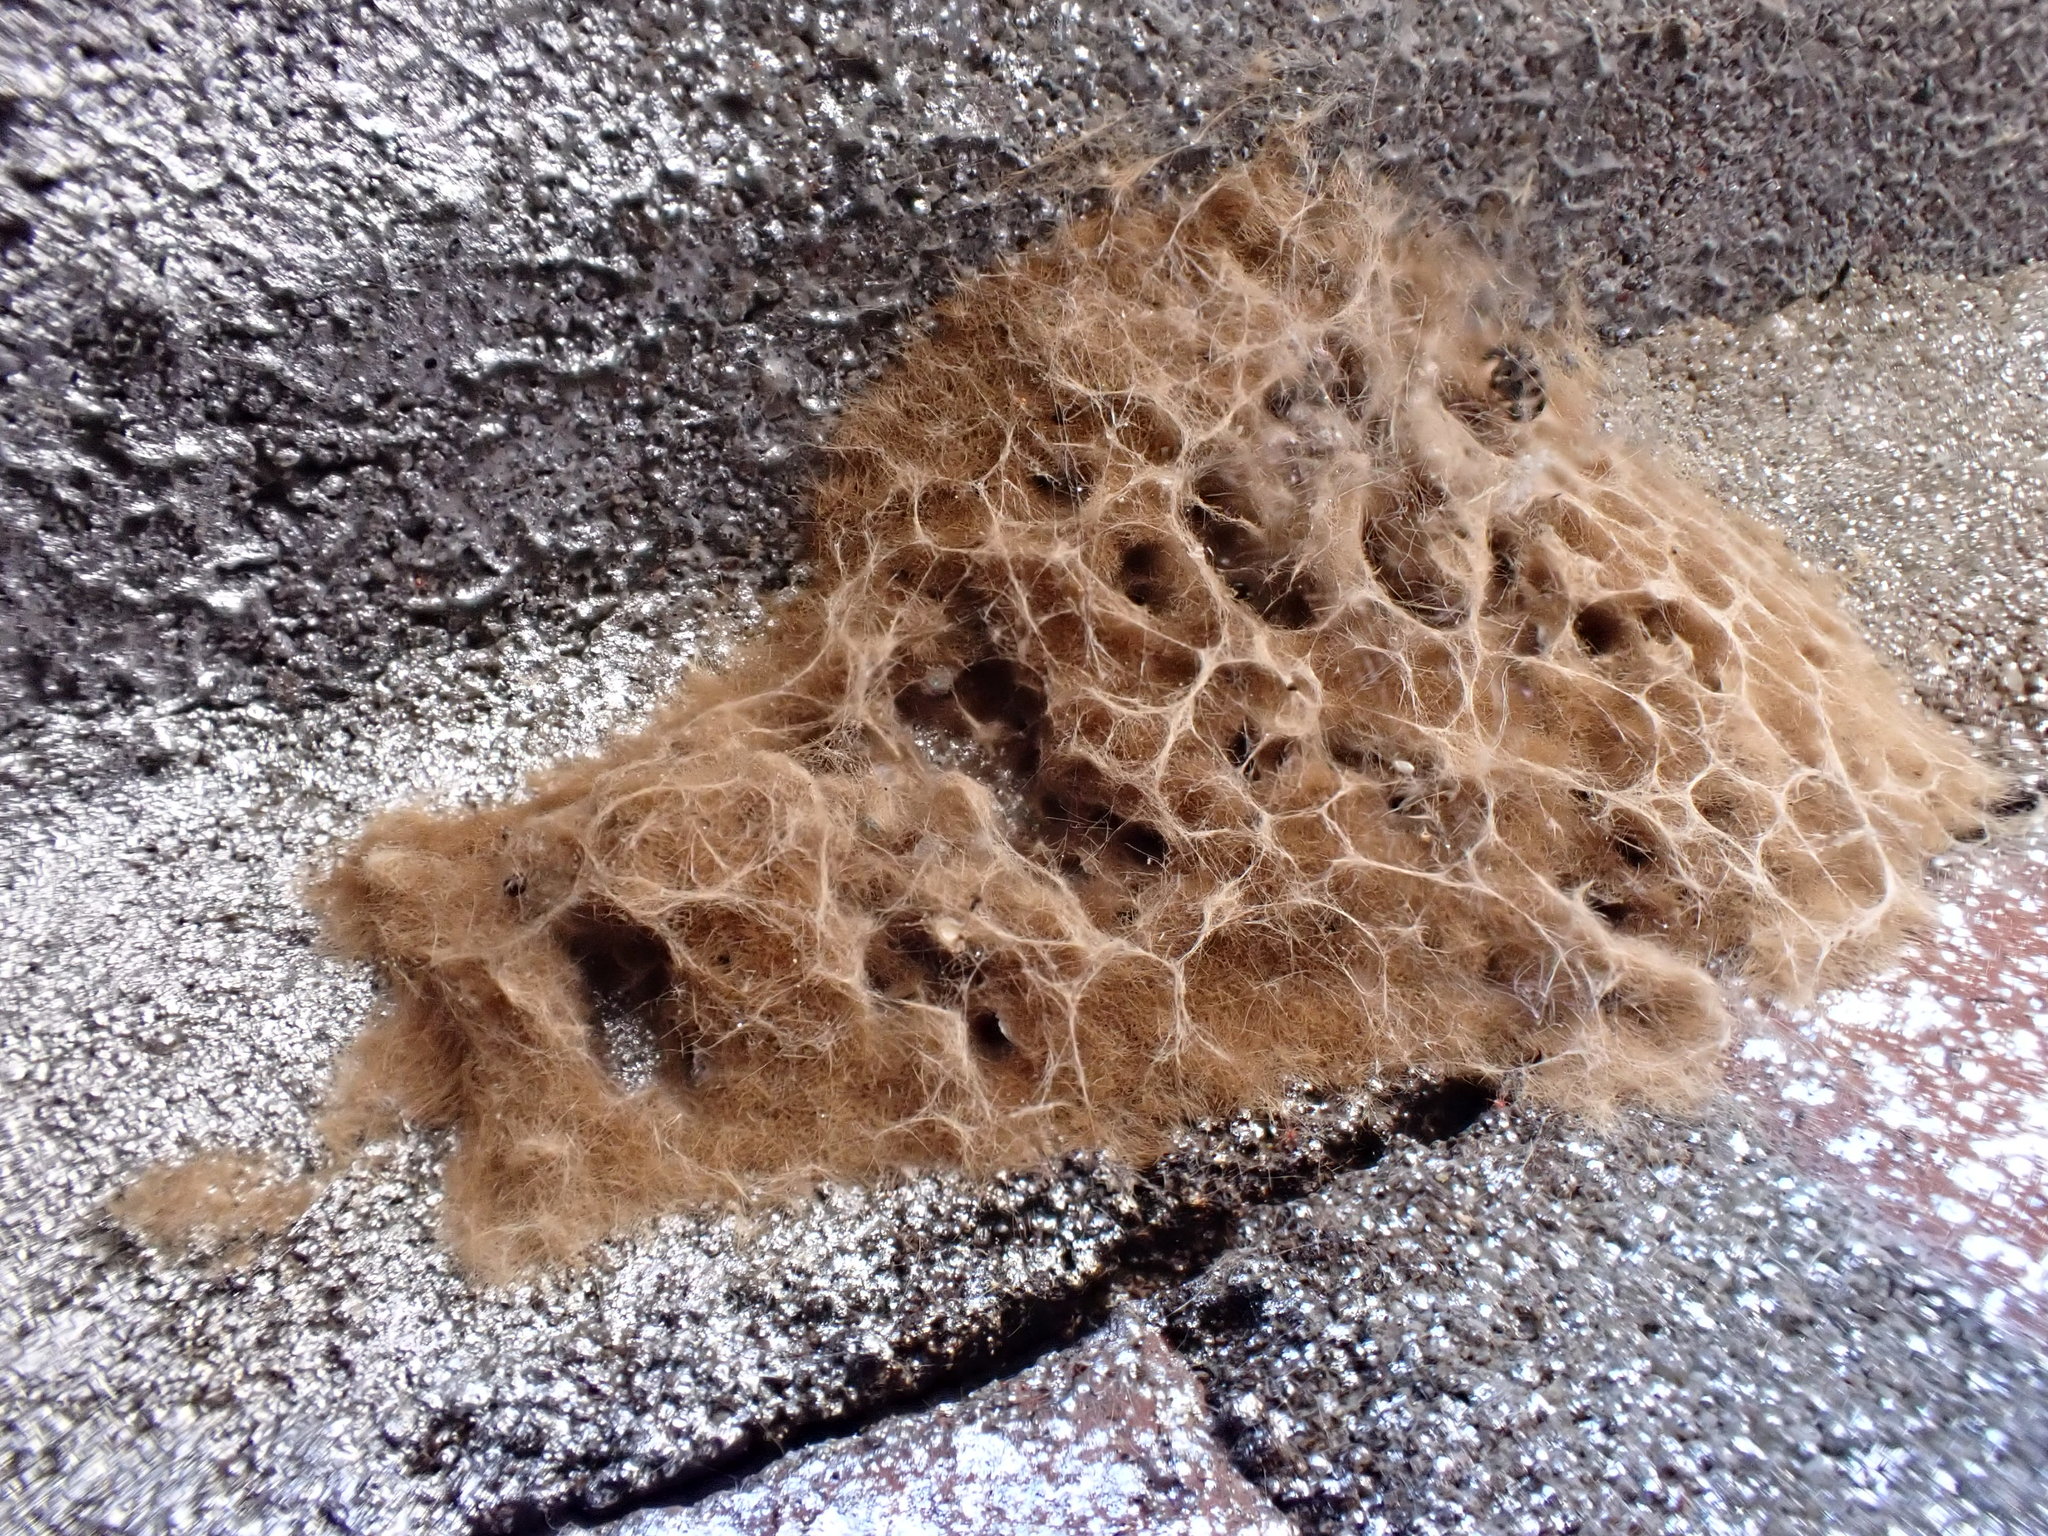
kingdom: Animalia
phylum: Arthropoda
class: Insecta
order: Lepidoptera
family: Erebidae
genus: Lymantria
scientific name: Lymantria dispar
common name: Gypsy moth
